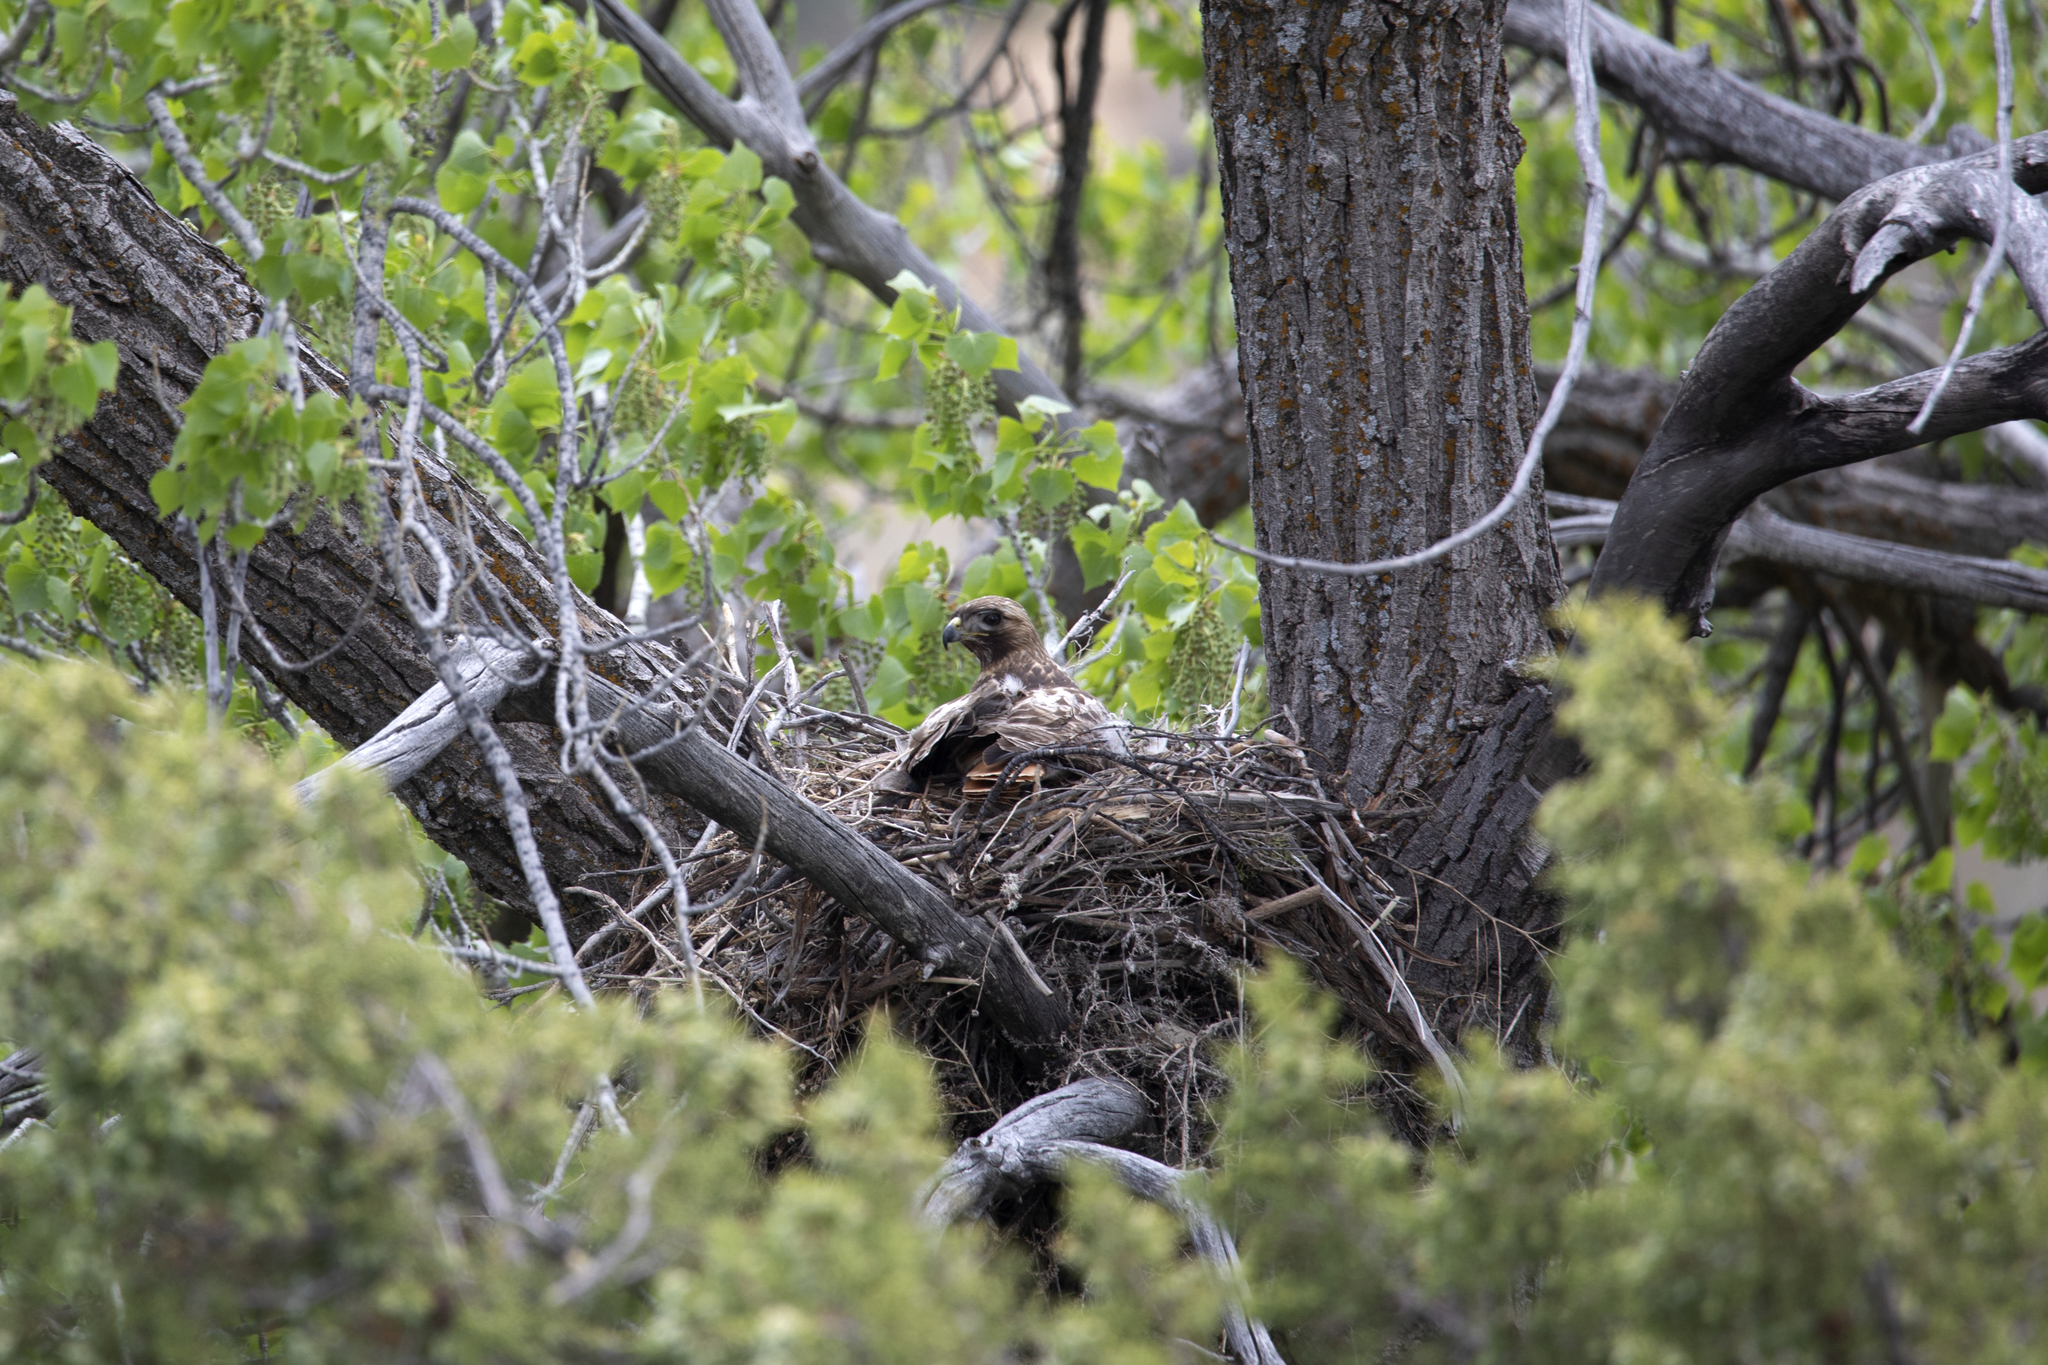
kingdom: Animalia
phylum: Chordata
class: Aves
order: Accipitriformes
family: Accipitridae
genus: Buteo
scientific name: Buteo jamaicensis
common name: Red-tailed hawk
